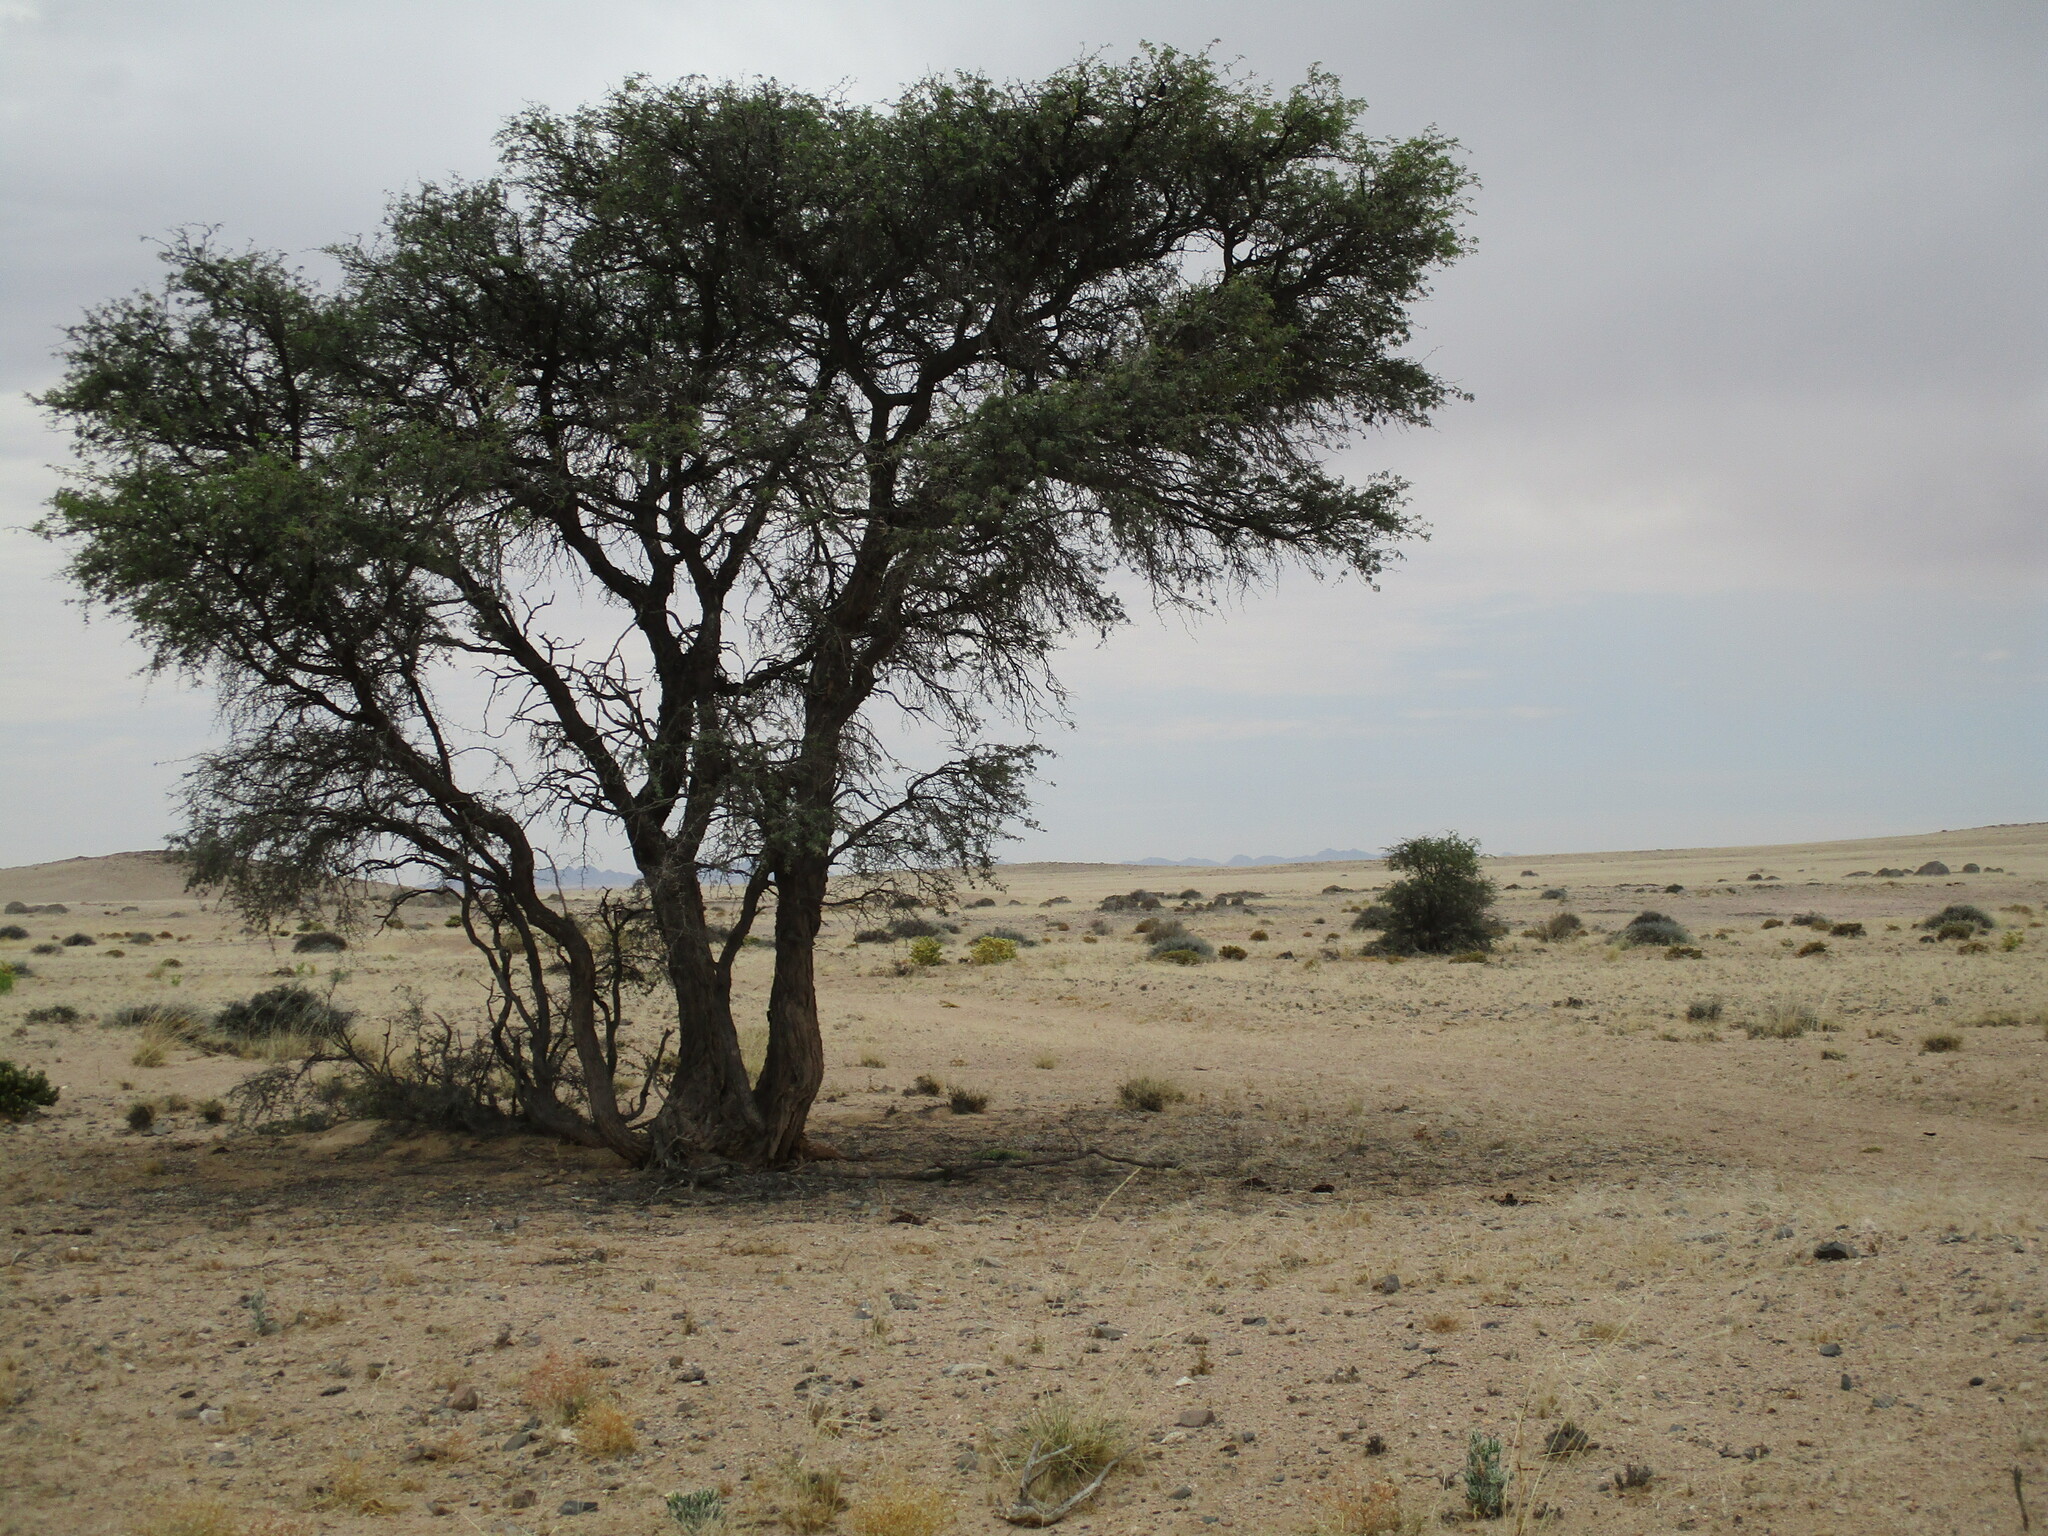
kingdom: Plantae
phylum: Tracheophyta
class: Magnoliopsida
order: Fabales
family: Fabaceae
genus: Vachellia
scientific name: Vachellia erioloba
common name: Camel thorn
